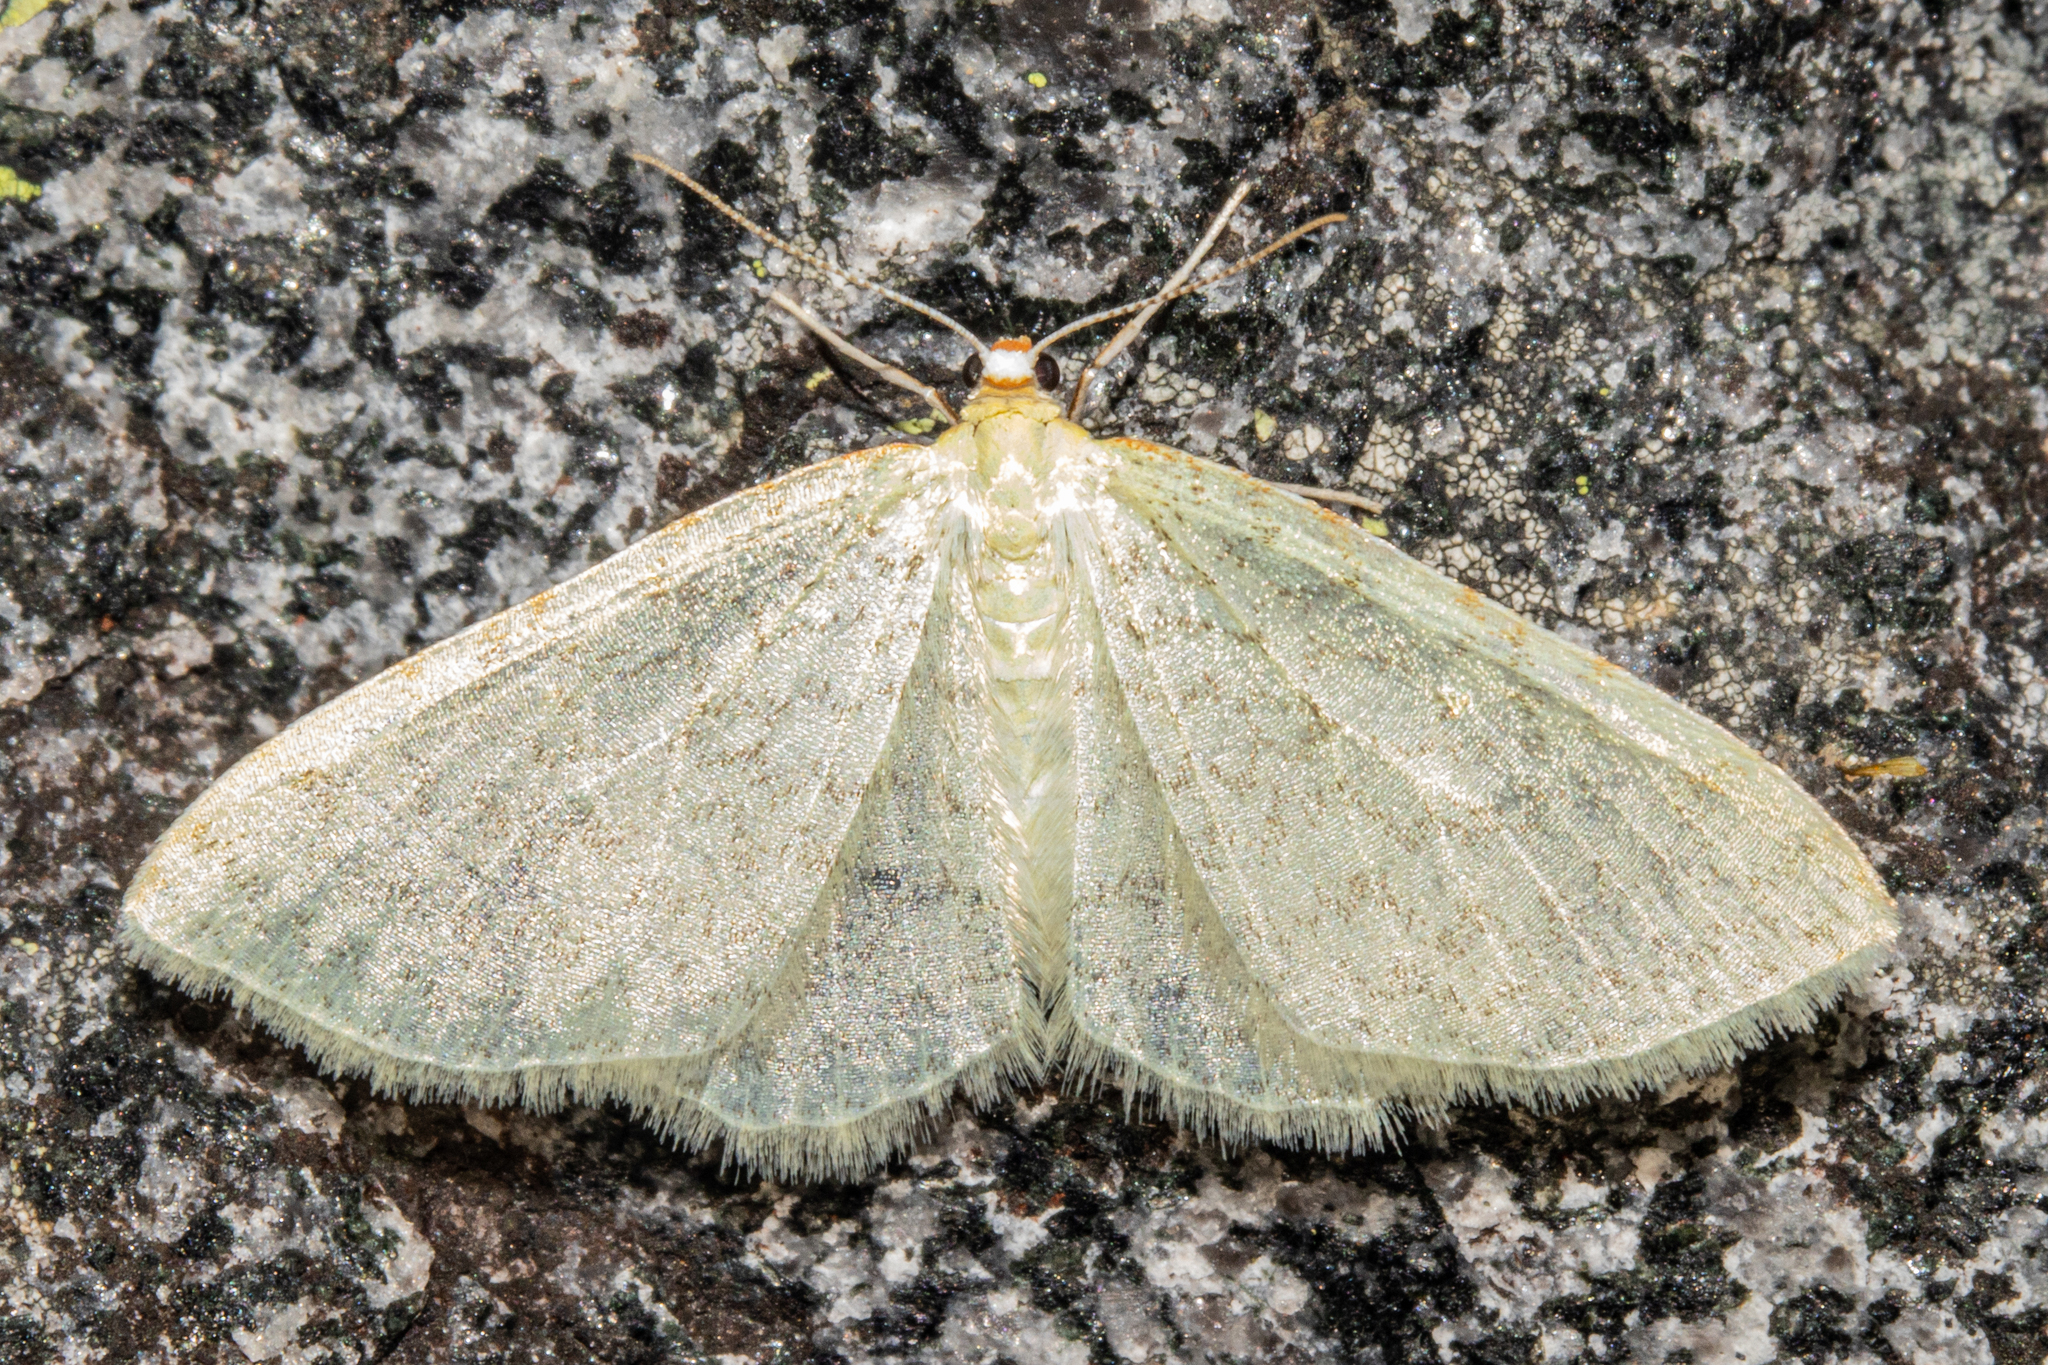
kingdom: Animalia
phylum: Arthropoda
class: Insecta
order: Lepidoptera
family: Geometridae
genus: Epiphryne
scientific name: Epiphryne undosata
